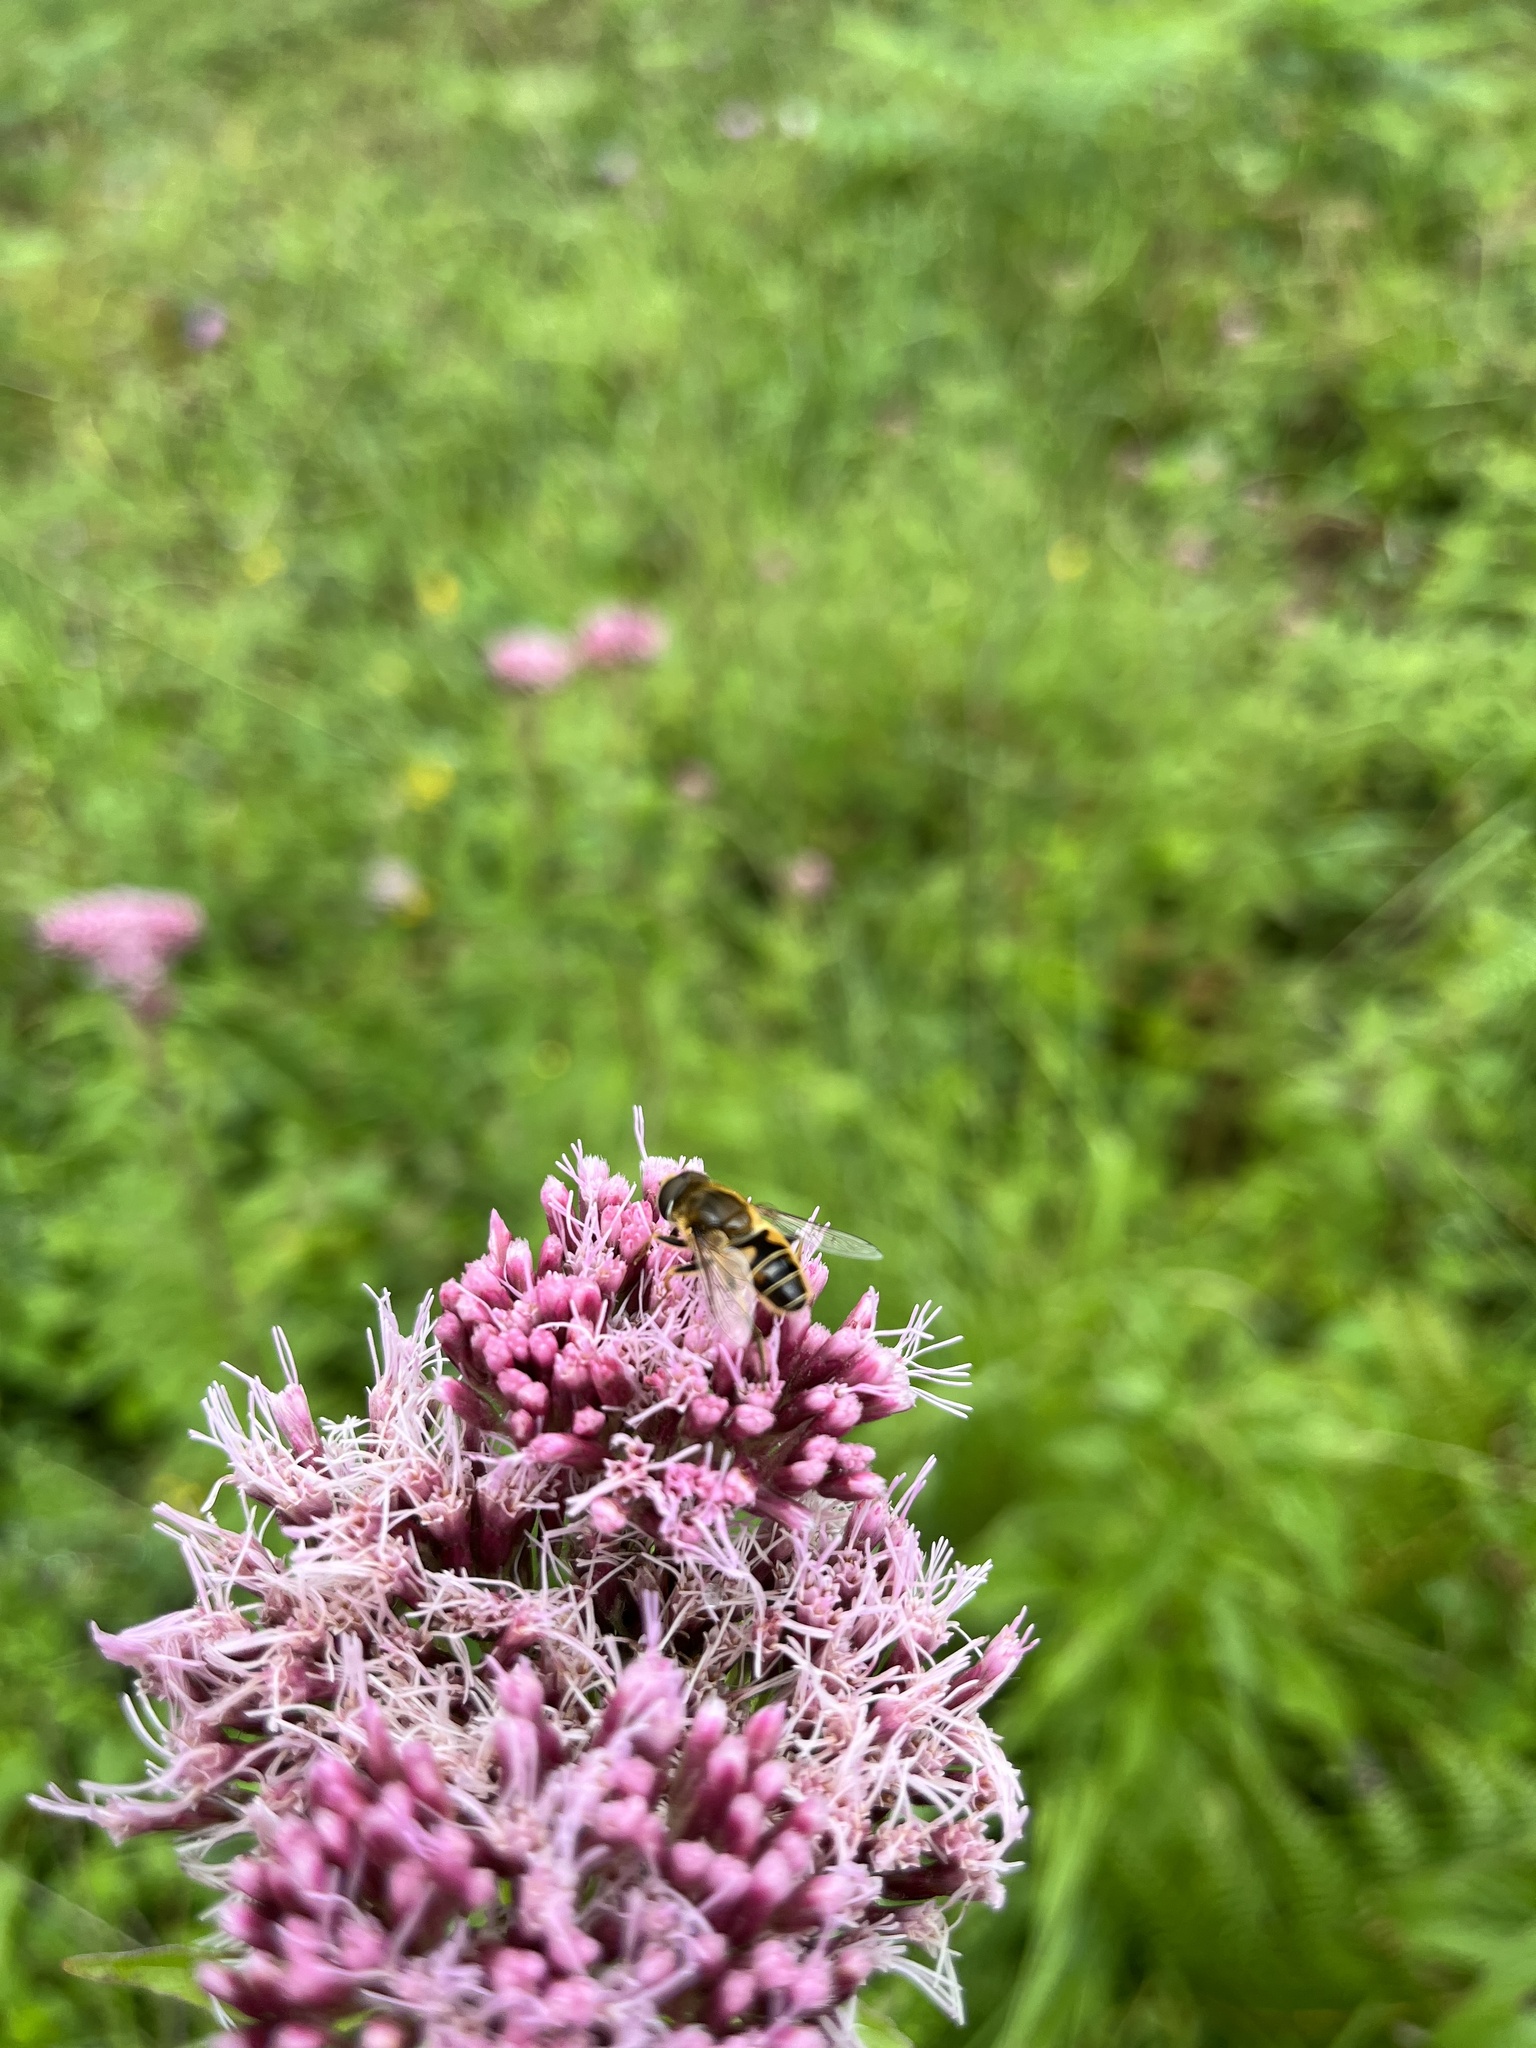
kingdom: Animalia
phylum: Arthropoda
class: Insecta
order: Diptera
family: Syrphidae
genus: Eristalis
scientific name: Eristalis nemorum
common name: Orange-spined drone fly
